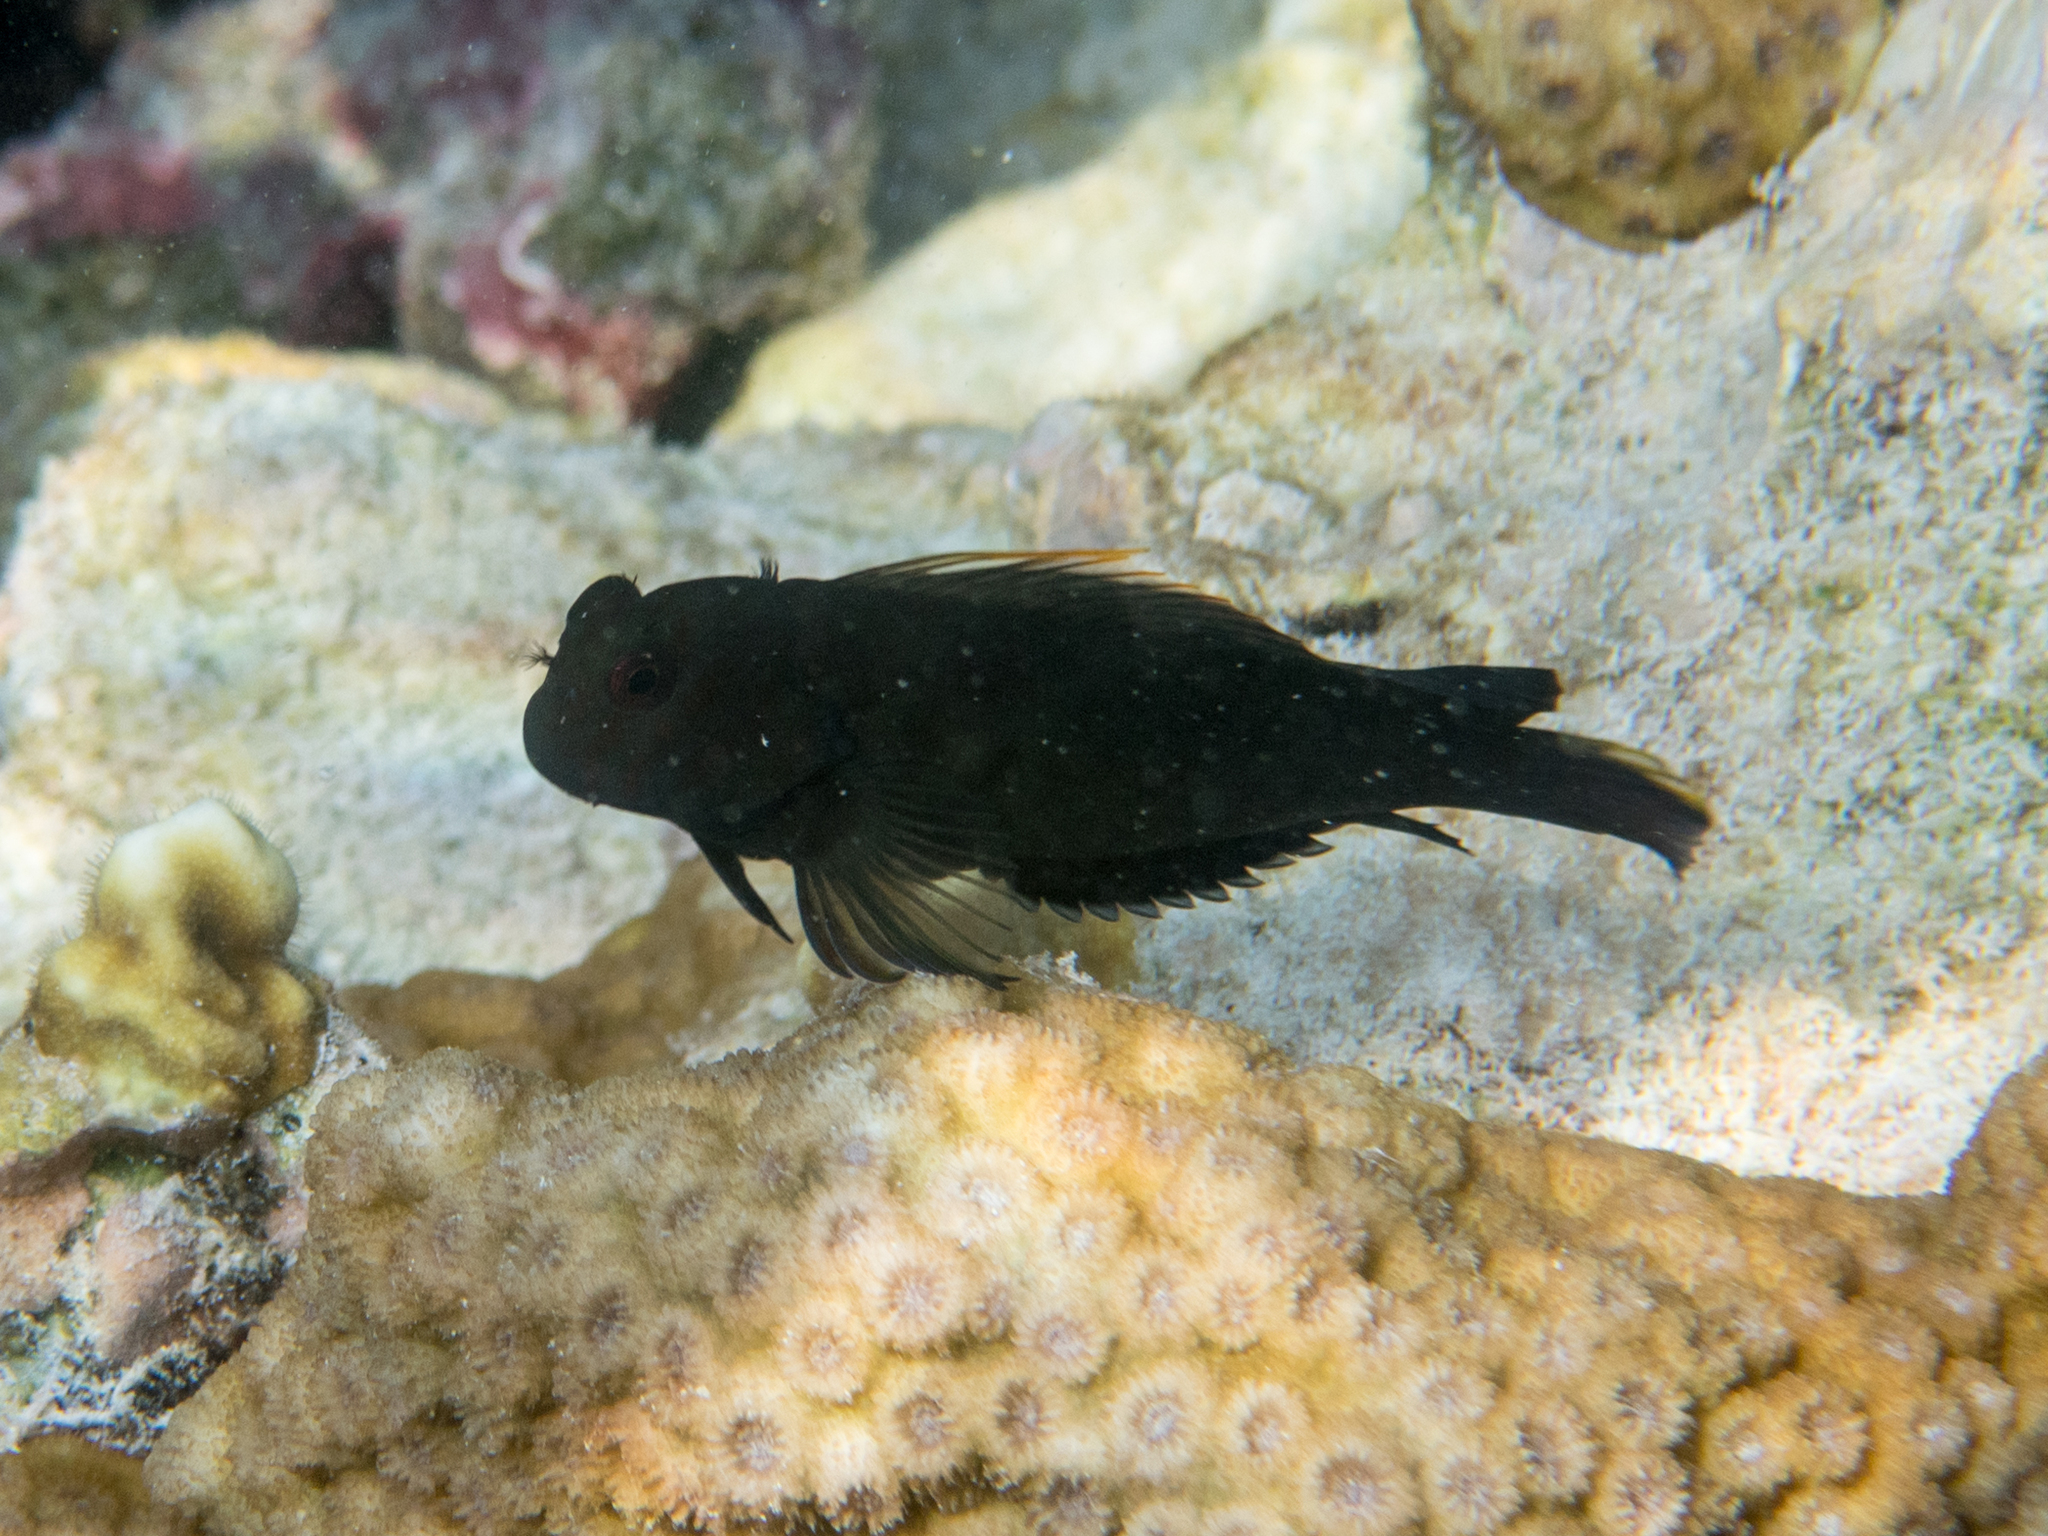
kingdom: Animalia
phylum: Chordata
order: Perciformes
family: Blenniidae
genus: Cirripectes
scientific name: Cirripectes castaneus
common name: Chestnut blenny
